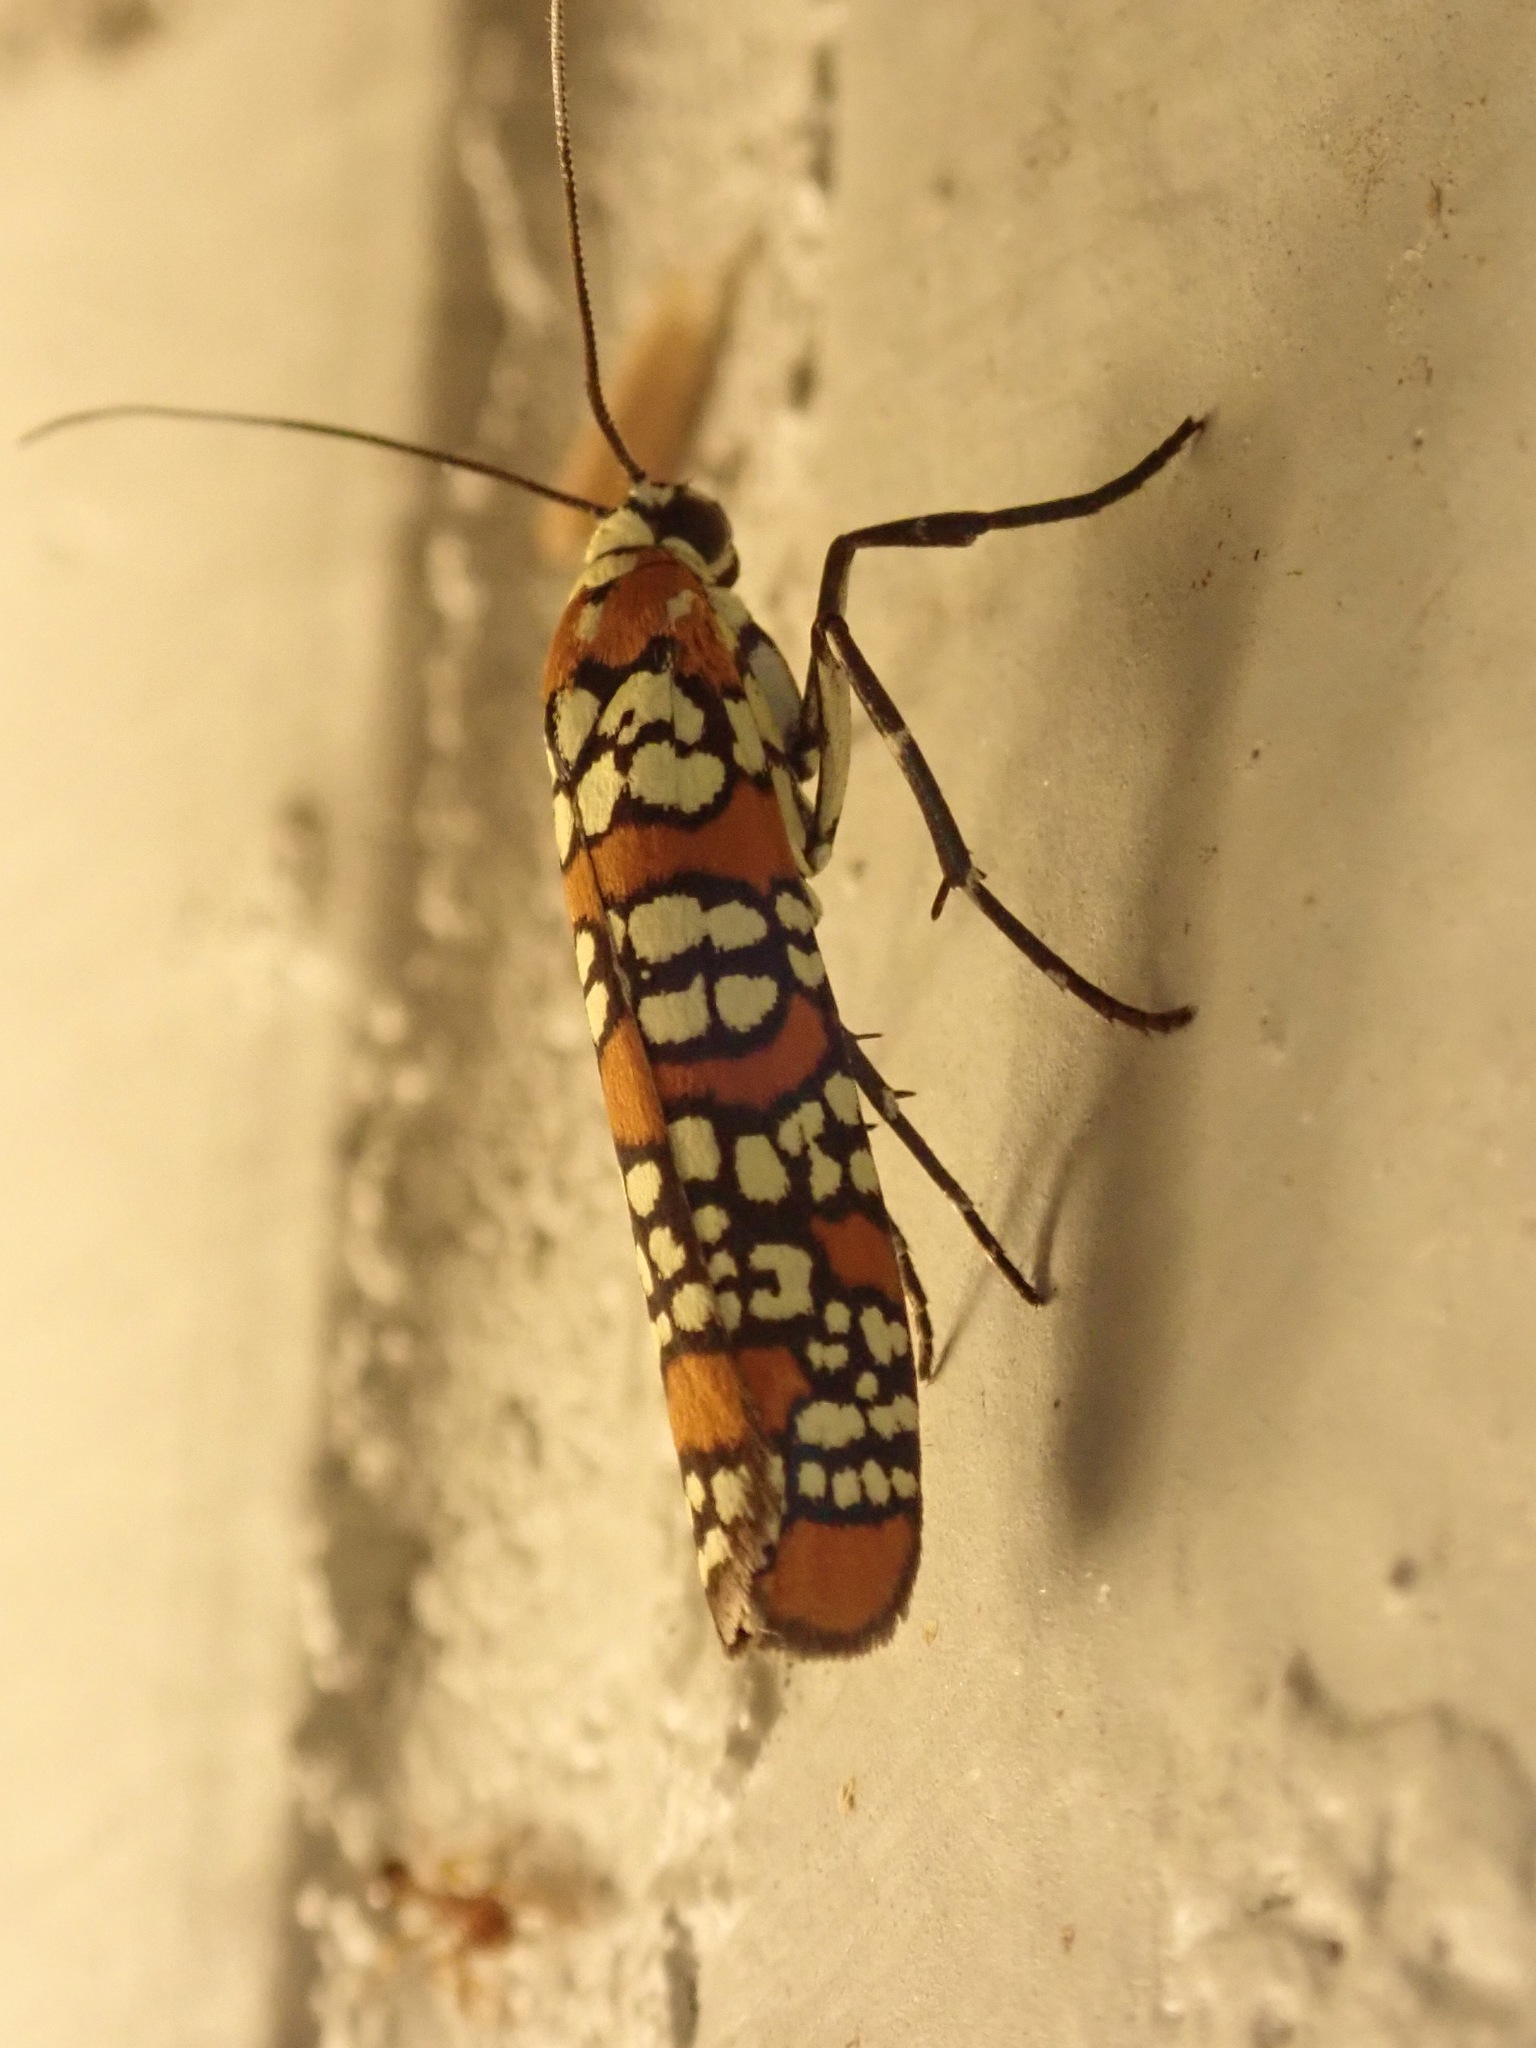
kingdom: Animalia
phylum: Arthropoda
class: Insecta
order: Lepidoptera
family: Attevidae
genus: Atteva
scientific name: Atteva punctella
